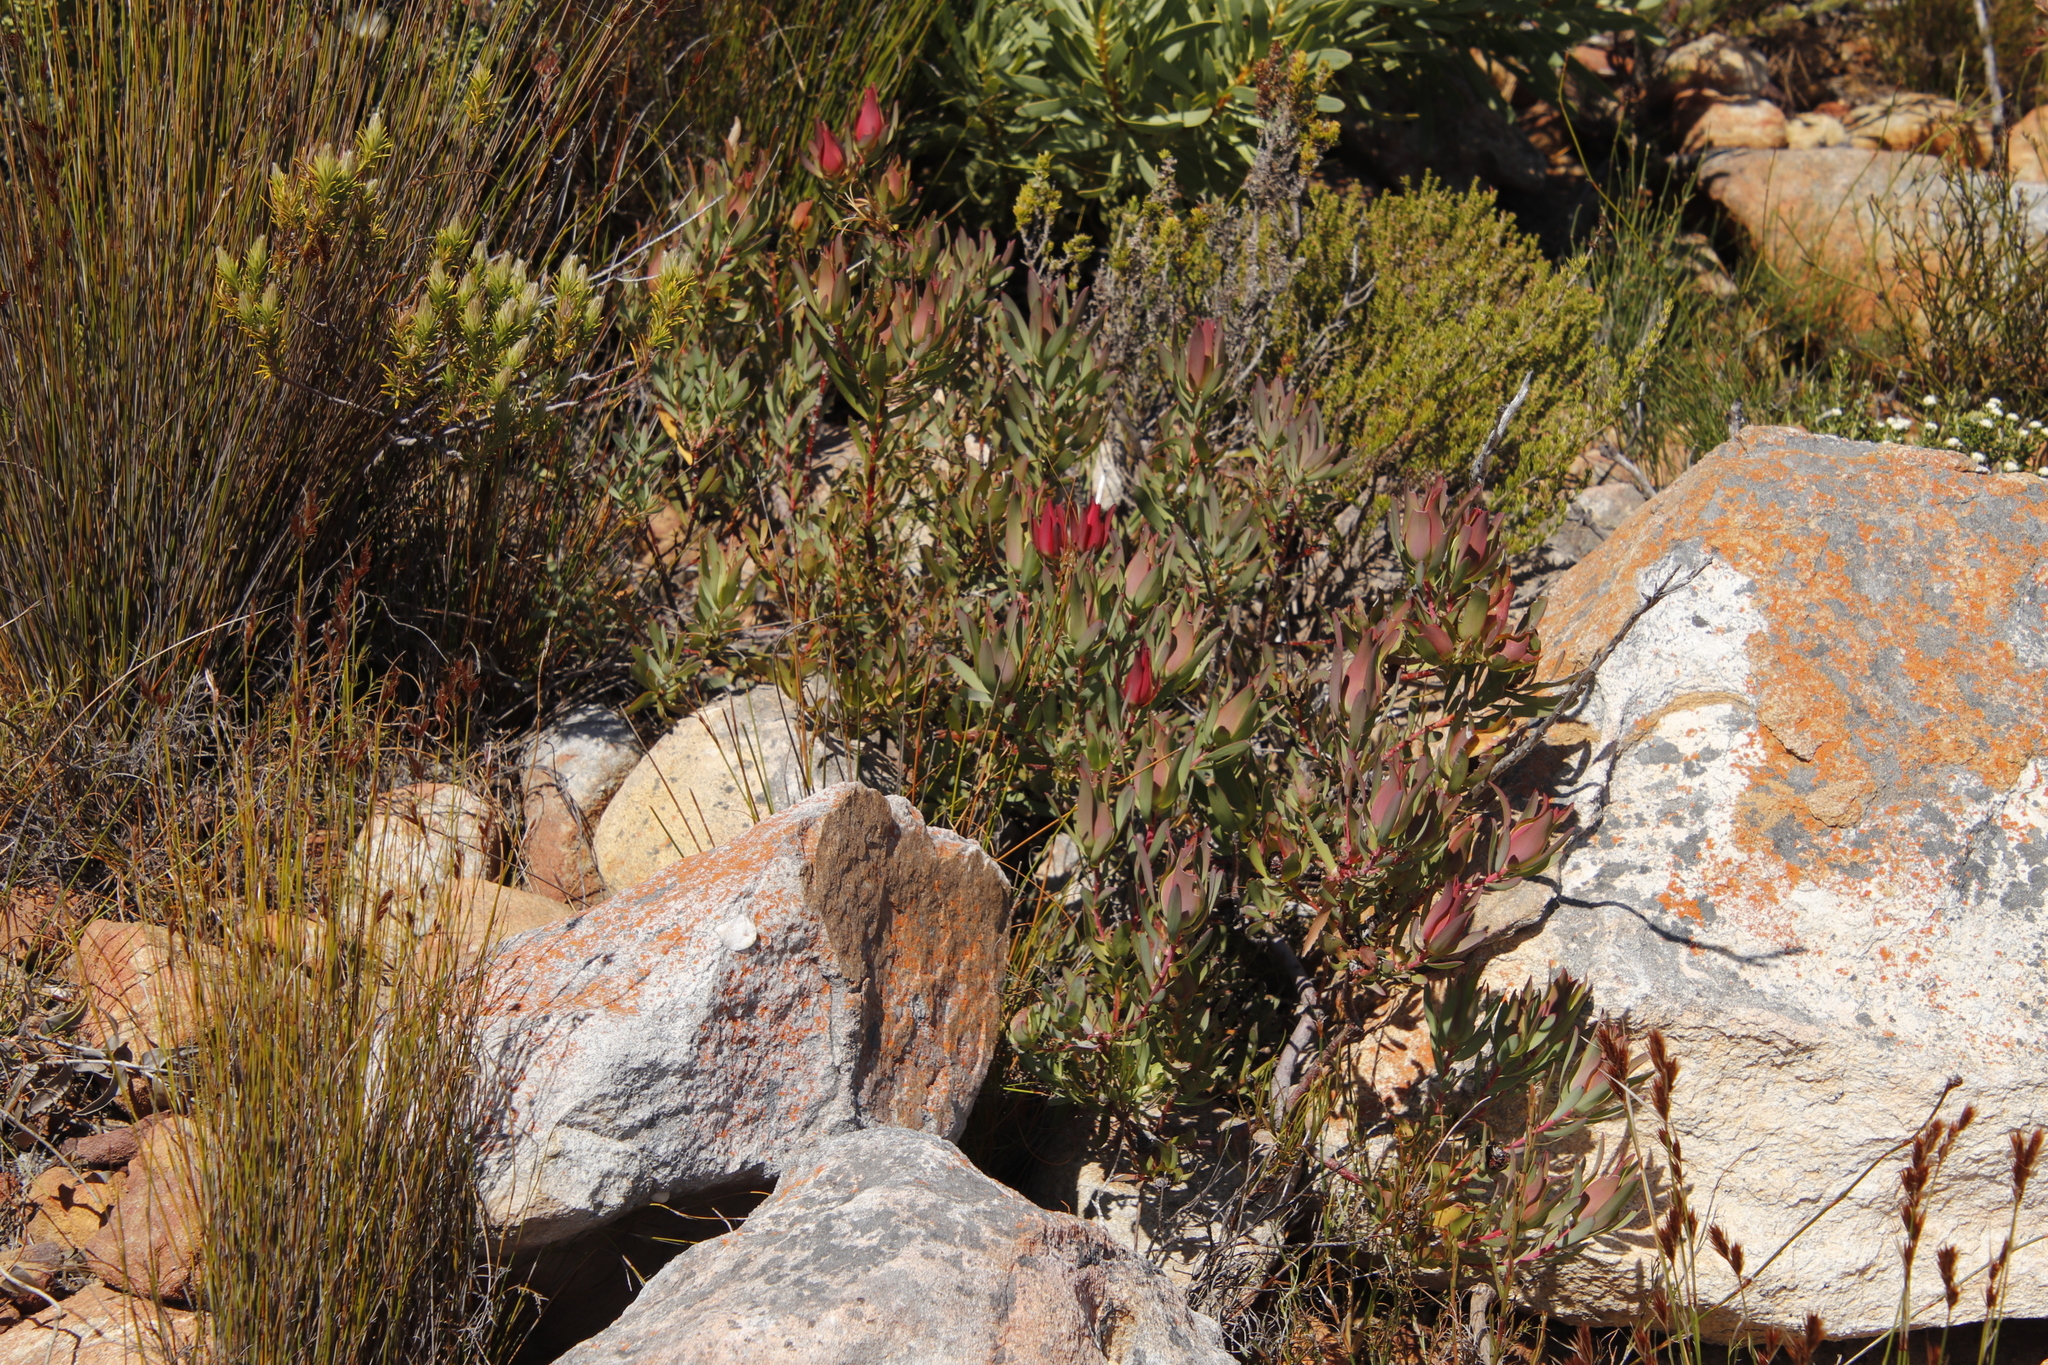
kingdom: Plantae
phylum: Tracheophyta
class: Magnoliopsida
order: Proteales
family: Proteaceae
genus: Leucadendron
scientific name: Leucadendron salignum
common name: Common sunshine conebush
